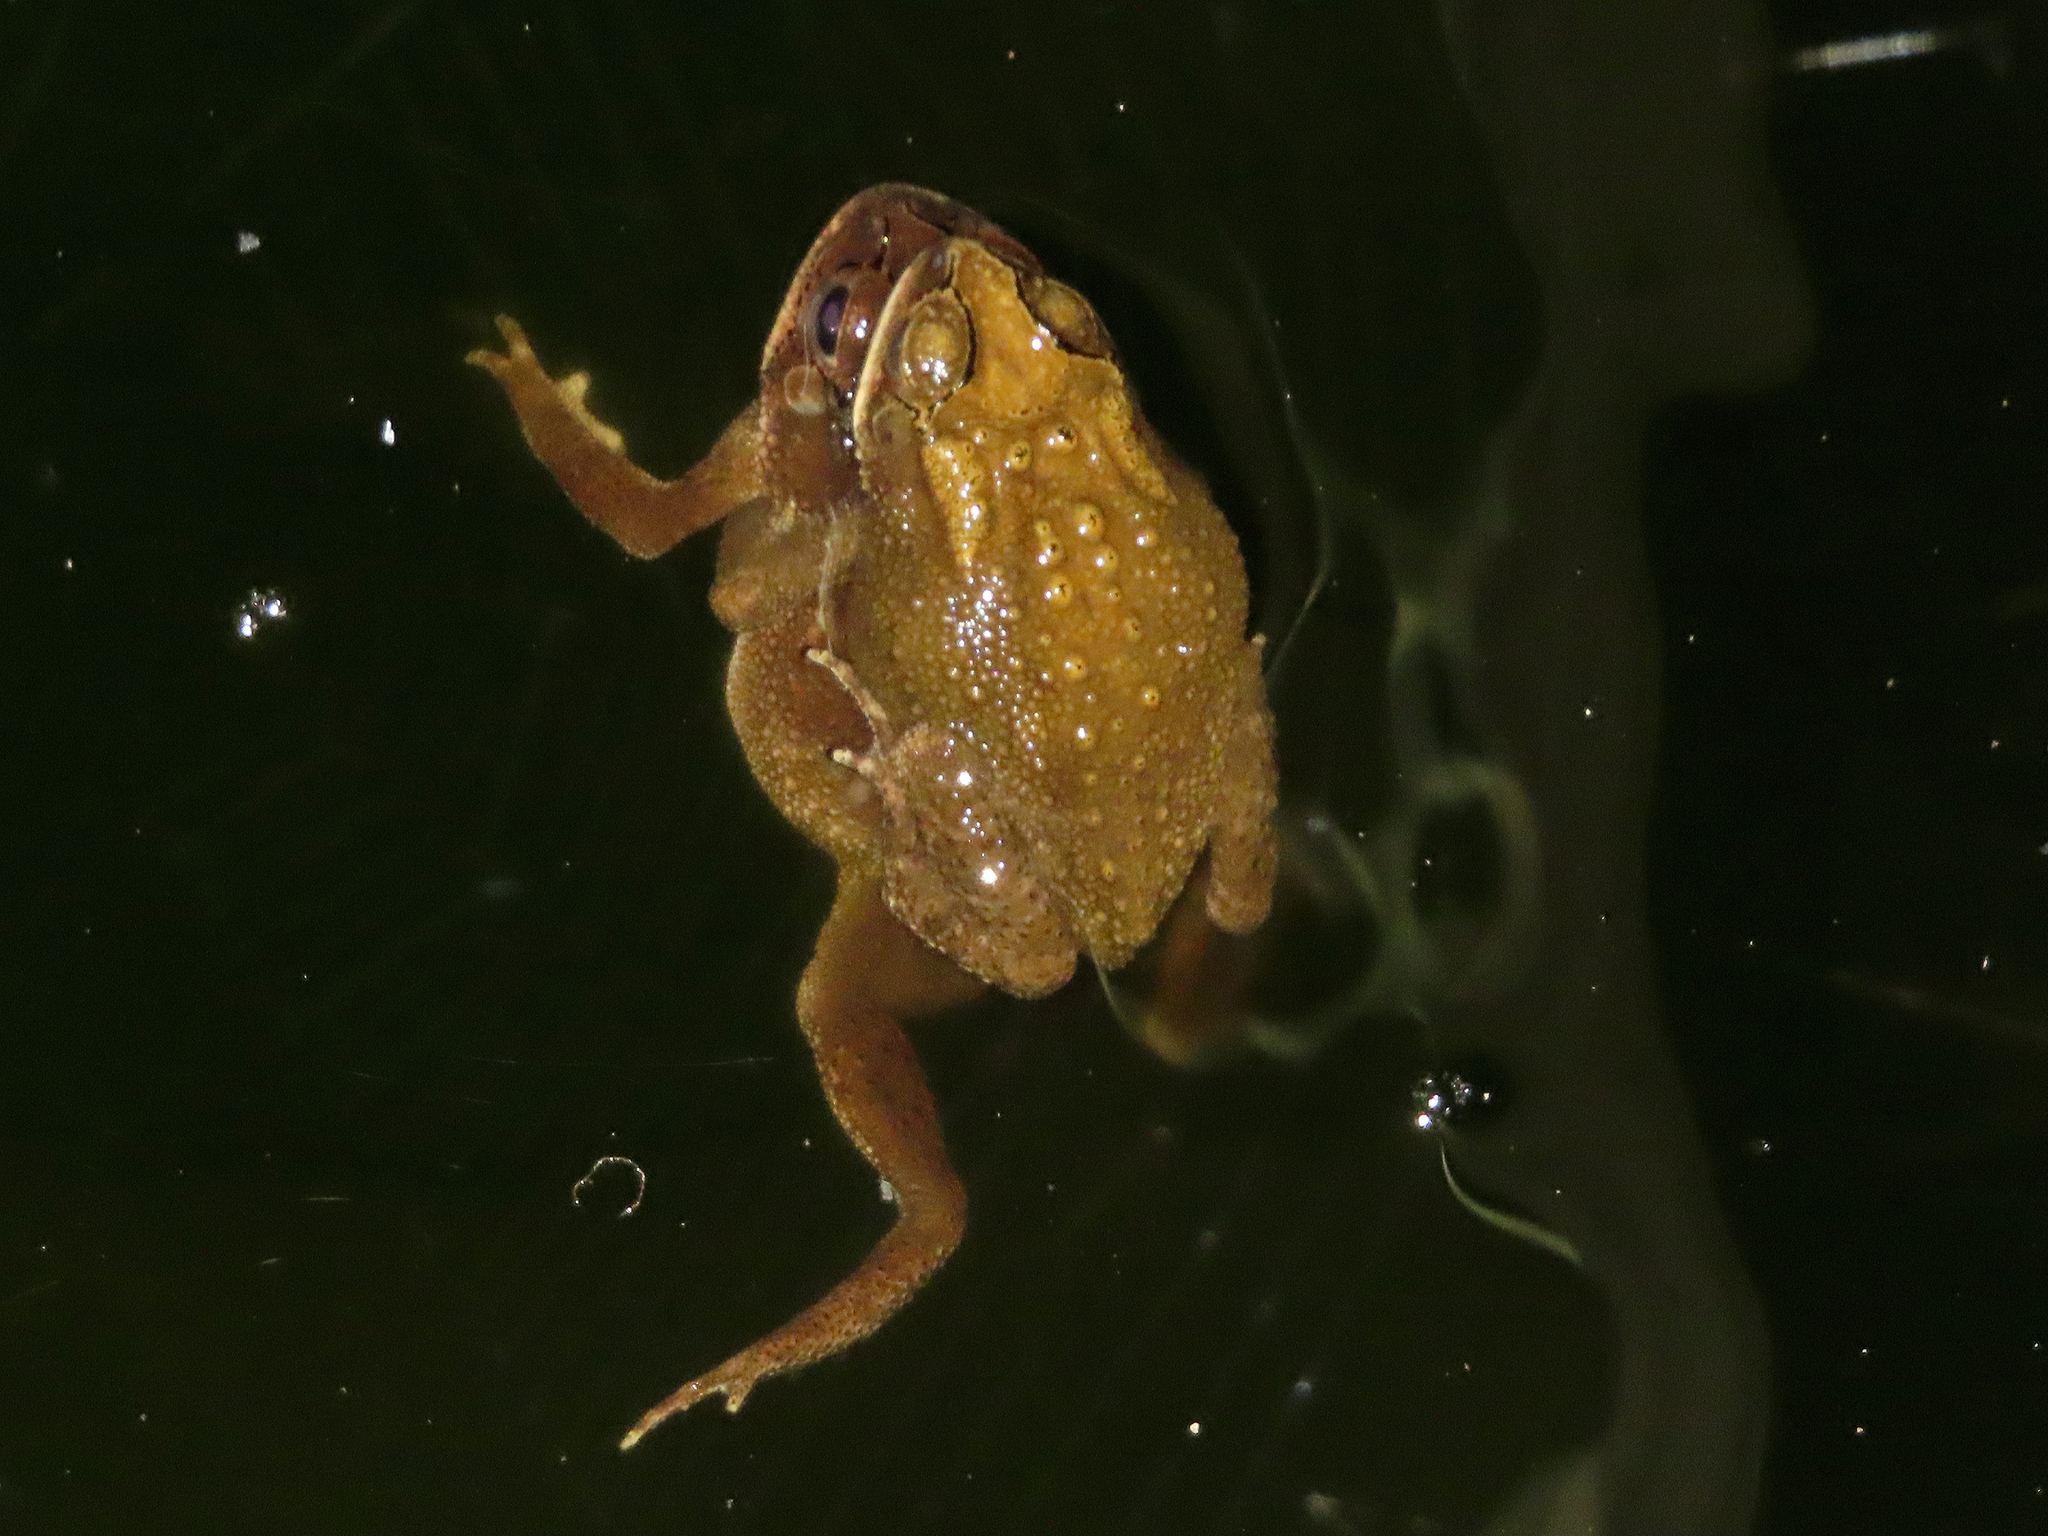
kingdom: Animalia
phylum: Chordata
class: Amphibia
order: Anura
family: Bufonidae
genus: Duttaphrynus
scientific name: Duttaphrynus melanostictus
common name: Common sunda toad
